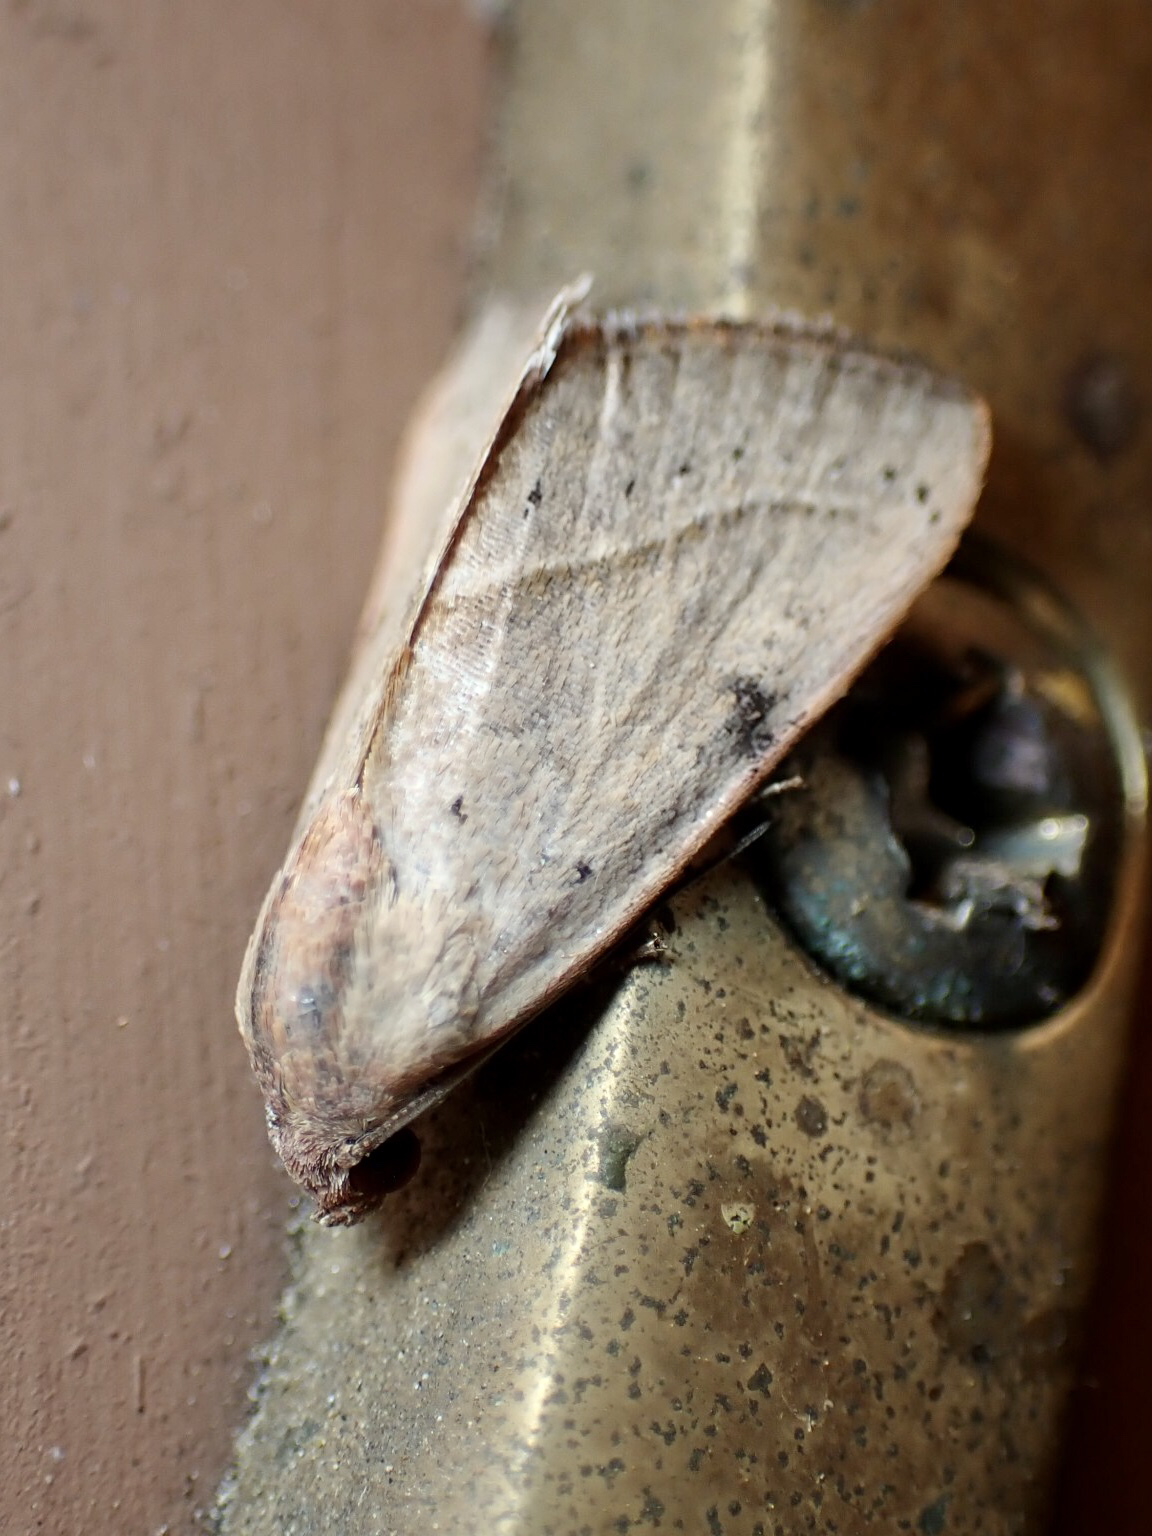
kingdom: Animalia
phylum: Arthropoda
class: Insecta
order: Lepidoptera
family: Noctuidae
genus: Galgula
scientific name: Galgula partita
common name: Wedgeling
